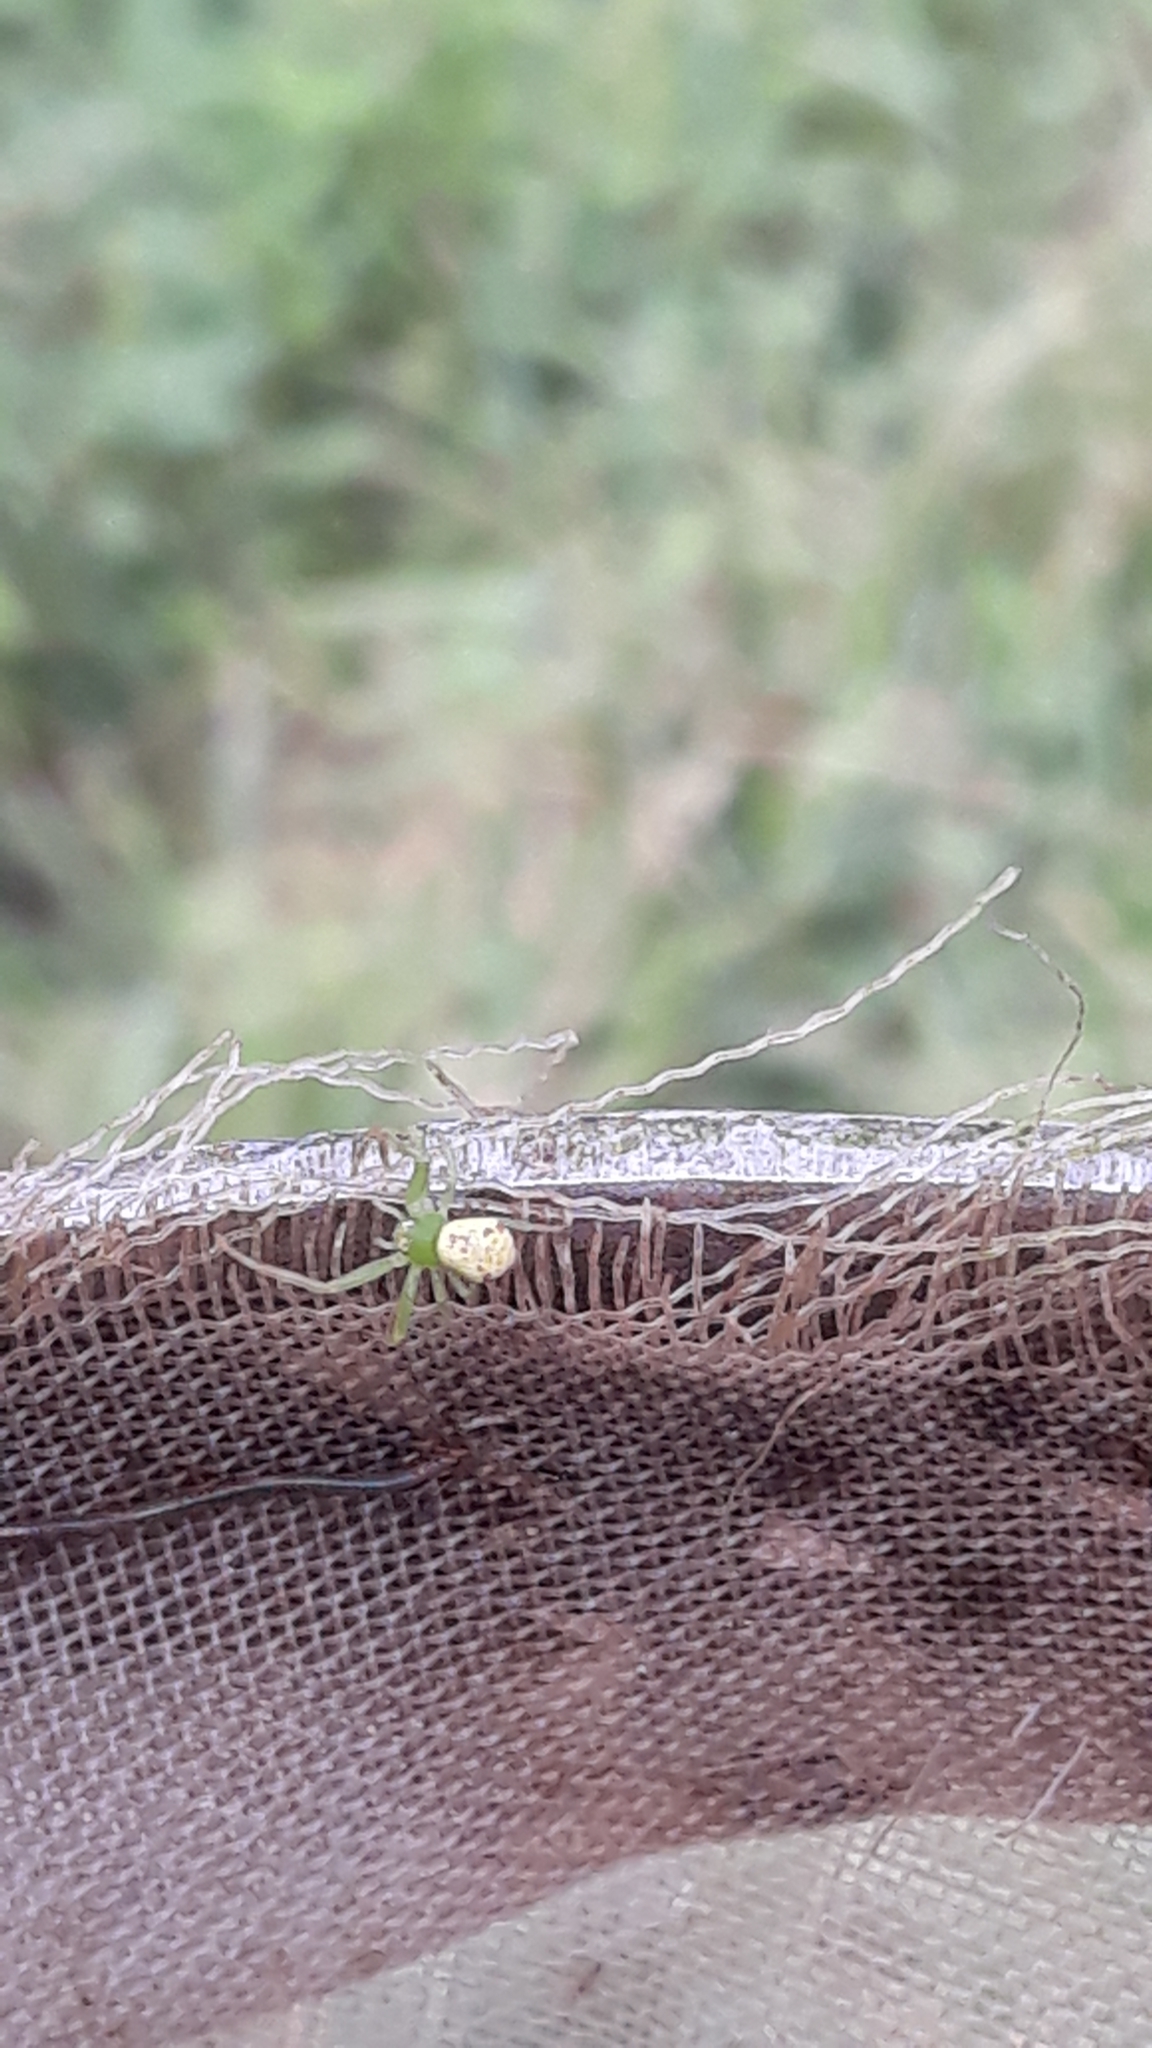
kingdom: Animalia
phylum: Arthropoda
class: Arachnida
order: Araneae
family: Thomisidae
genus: Ebrechtella
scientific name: Ebrechtella tricuspidata
